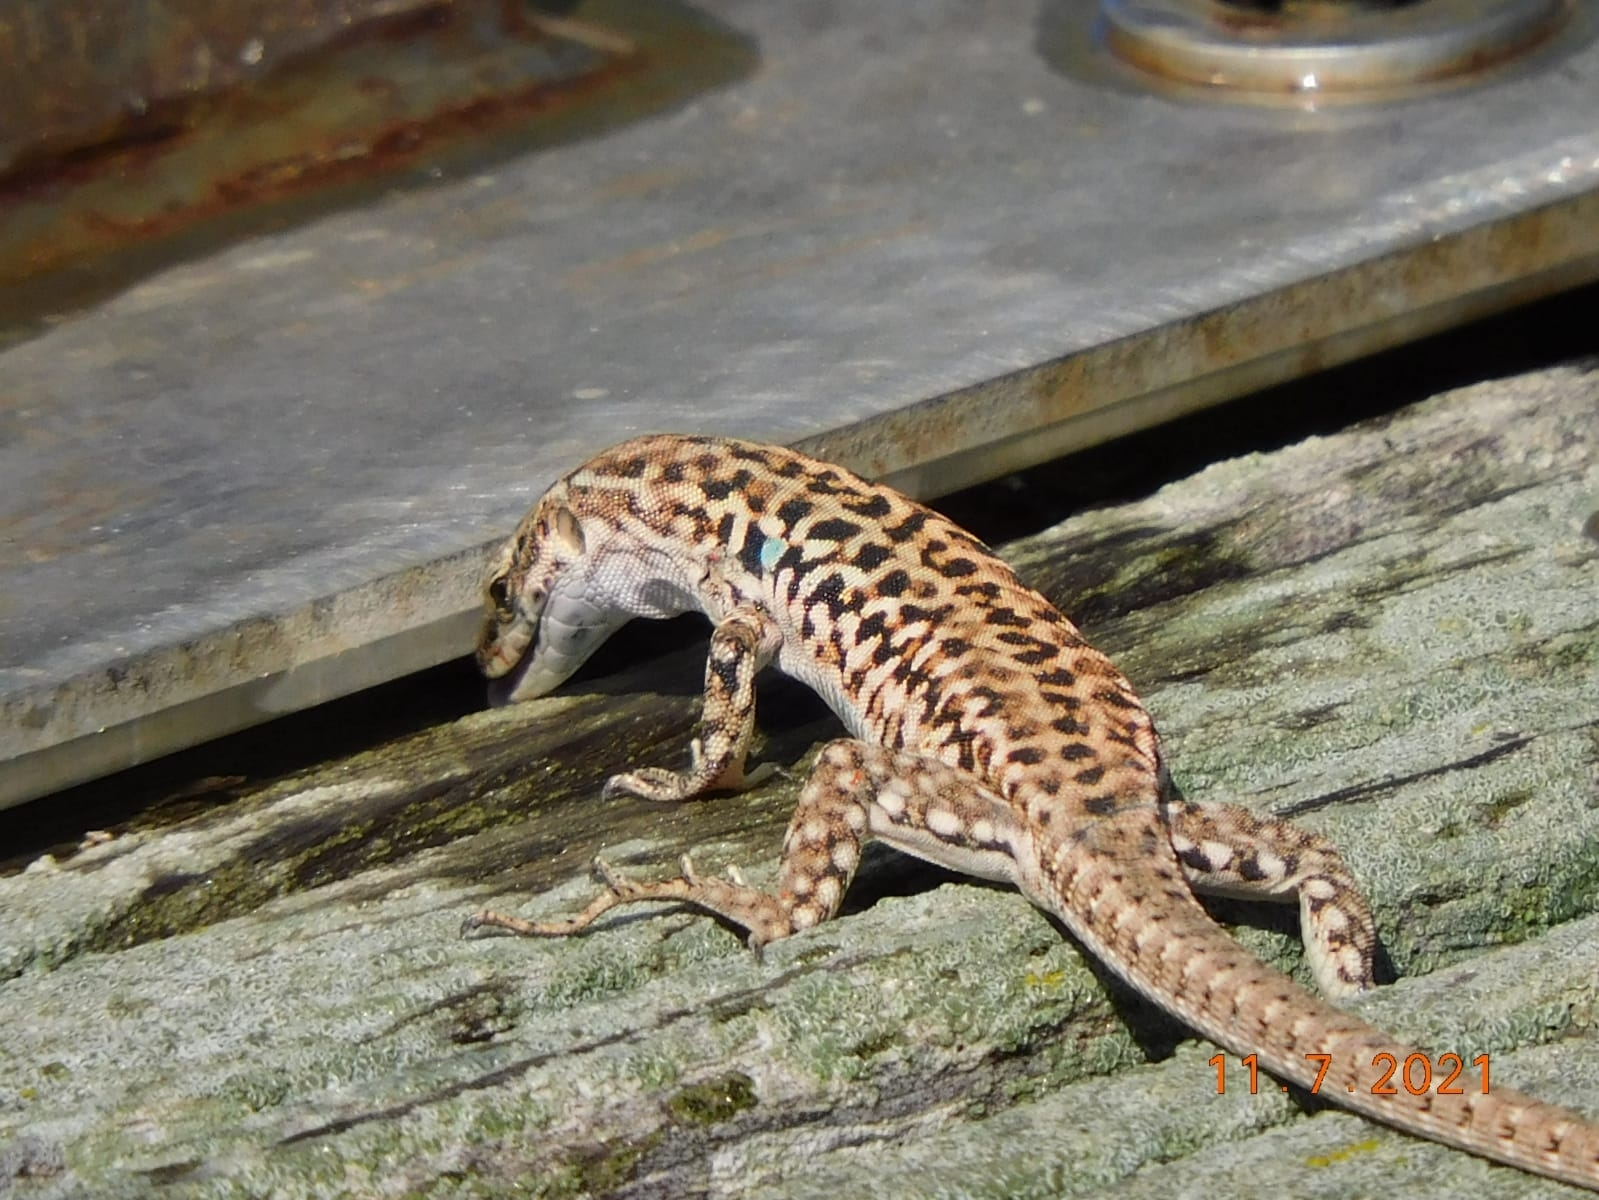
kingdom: Animalia
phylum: Chordata
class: Squamata
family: Lacertidae
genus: Podarcis
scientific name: Podarcis siculus
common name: Italian wall lizard
